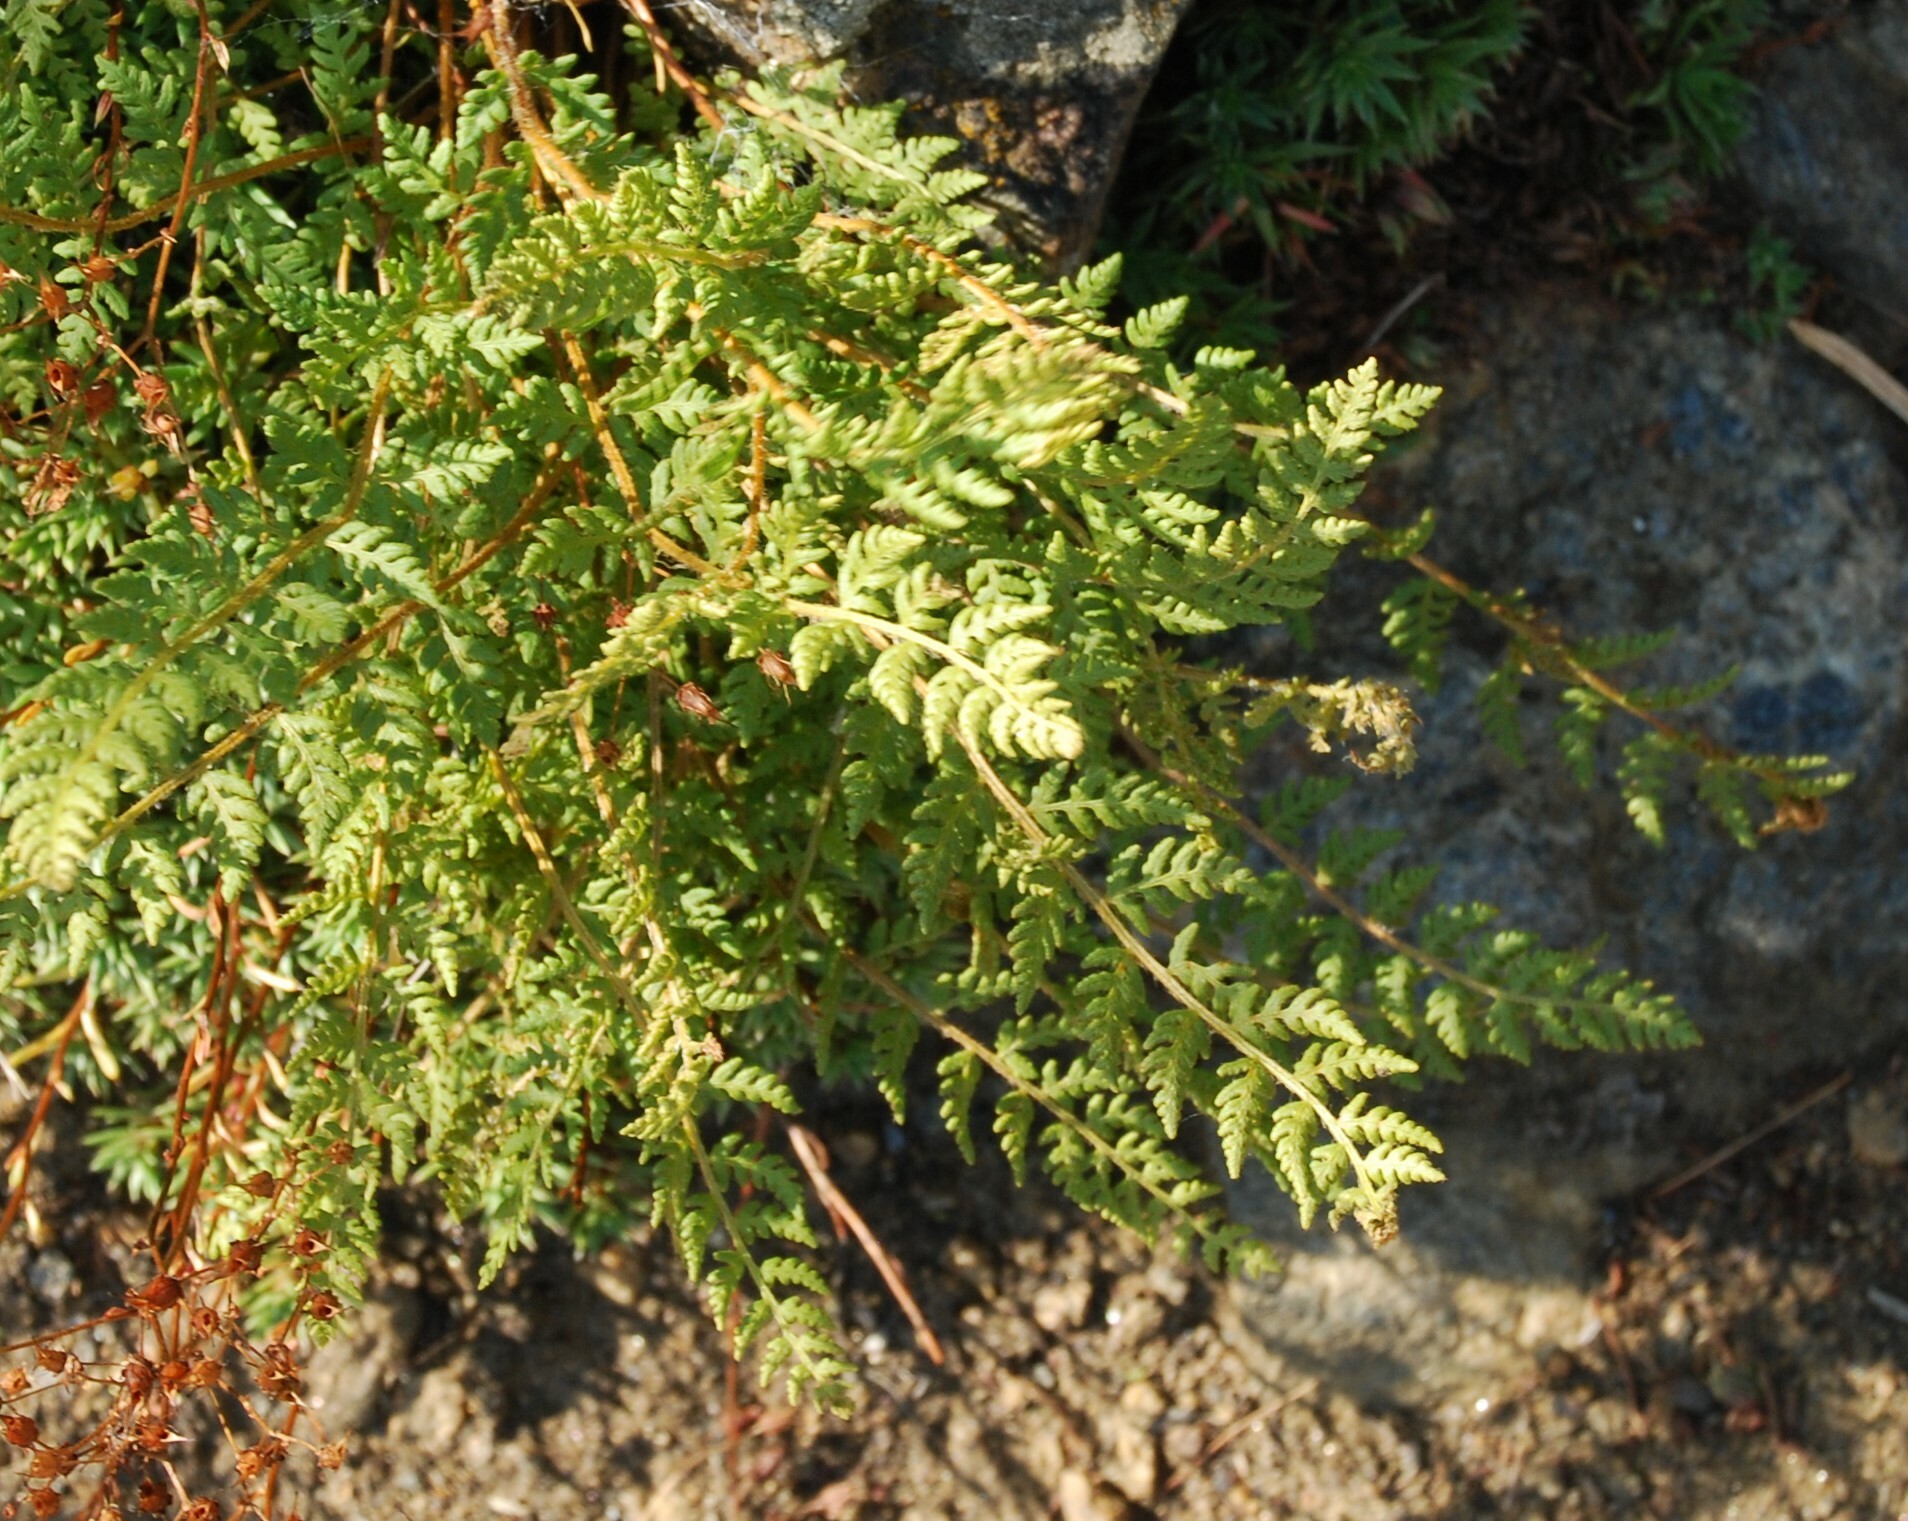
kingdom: Plantae
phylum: Tracheophyta
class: Polypodiopsida
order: Polypodiales
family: Woodsiaceae
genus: Woodsia
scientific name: Woodsia ilvensis
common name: Fragrant woodsia
